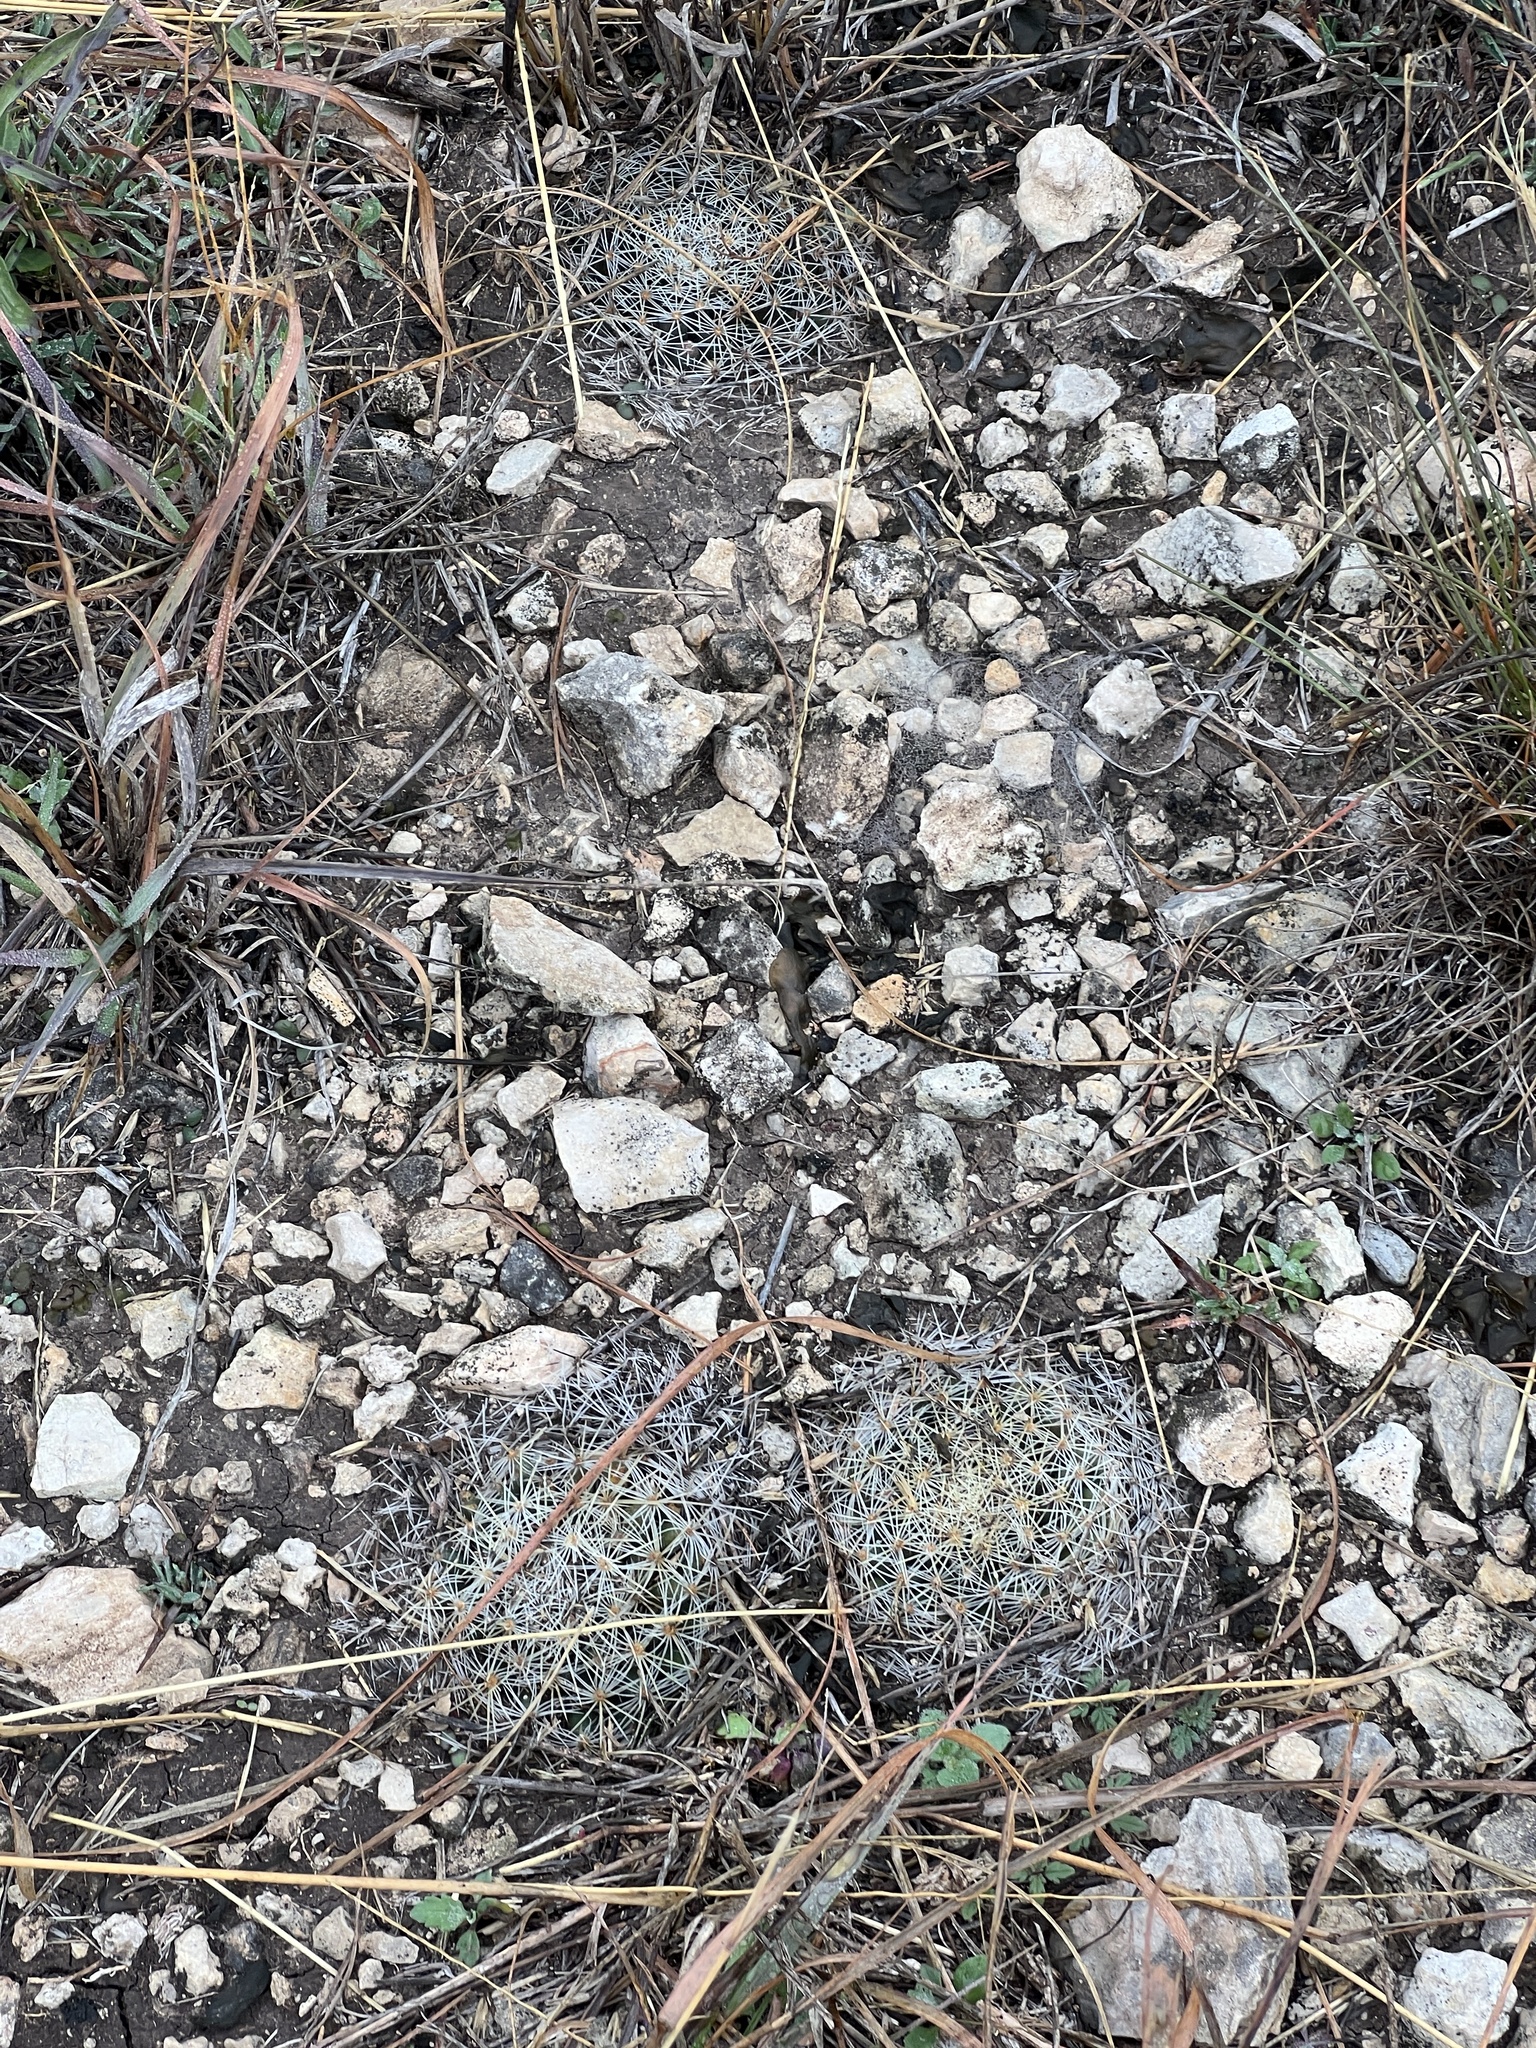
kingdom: Plantae
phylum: Tracheophyta
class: Magnoliopsida
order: Caryophyllales
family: Cactaceae
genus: Mammillaria
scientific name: Mammillaria heyderi
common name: Little nipple cactus
